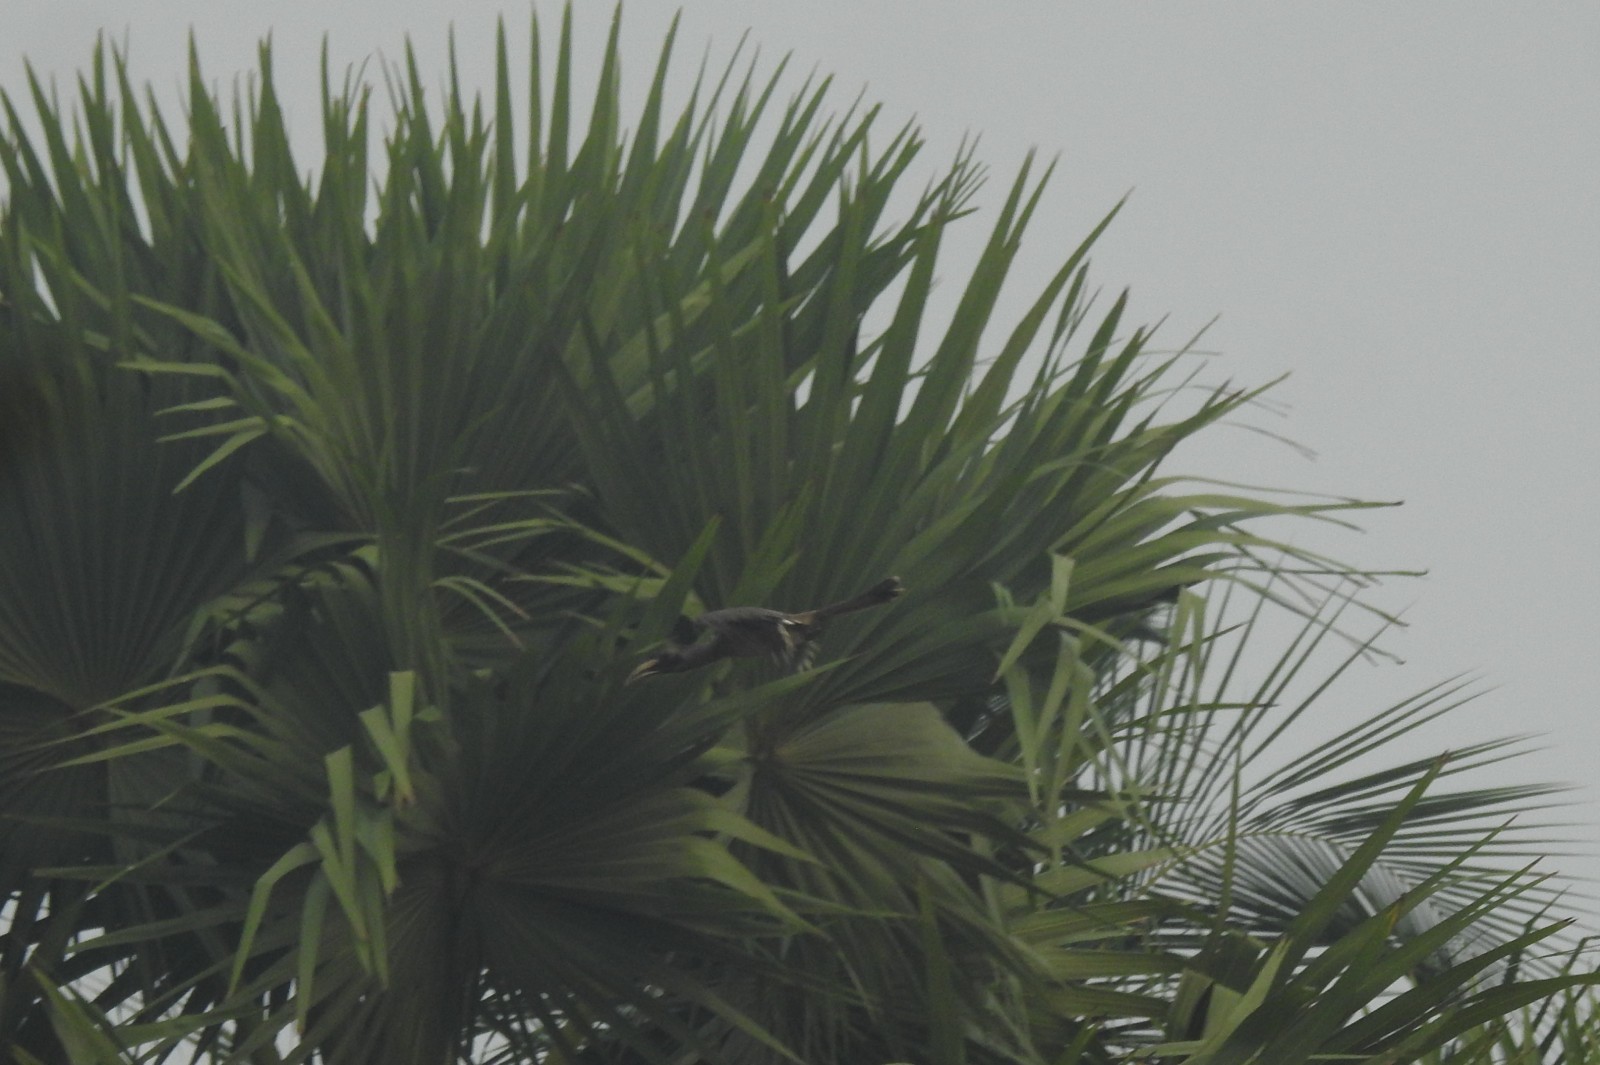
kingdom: Animalia
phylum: Chordata
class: Aves
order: Bucerotiformes
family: Bucerotidae
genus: Ocyceros
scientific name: Ocyceros birostris
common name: Indian grey hornbill
